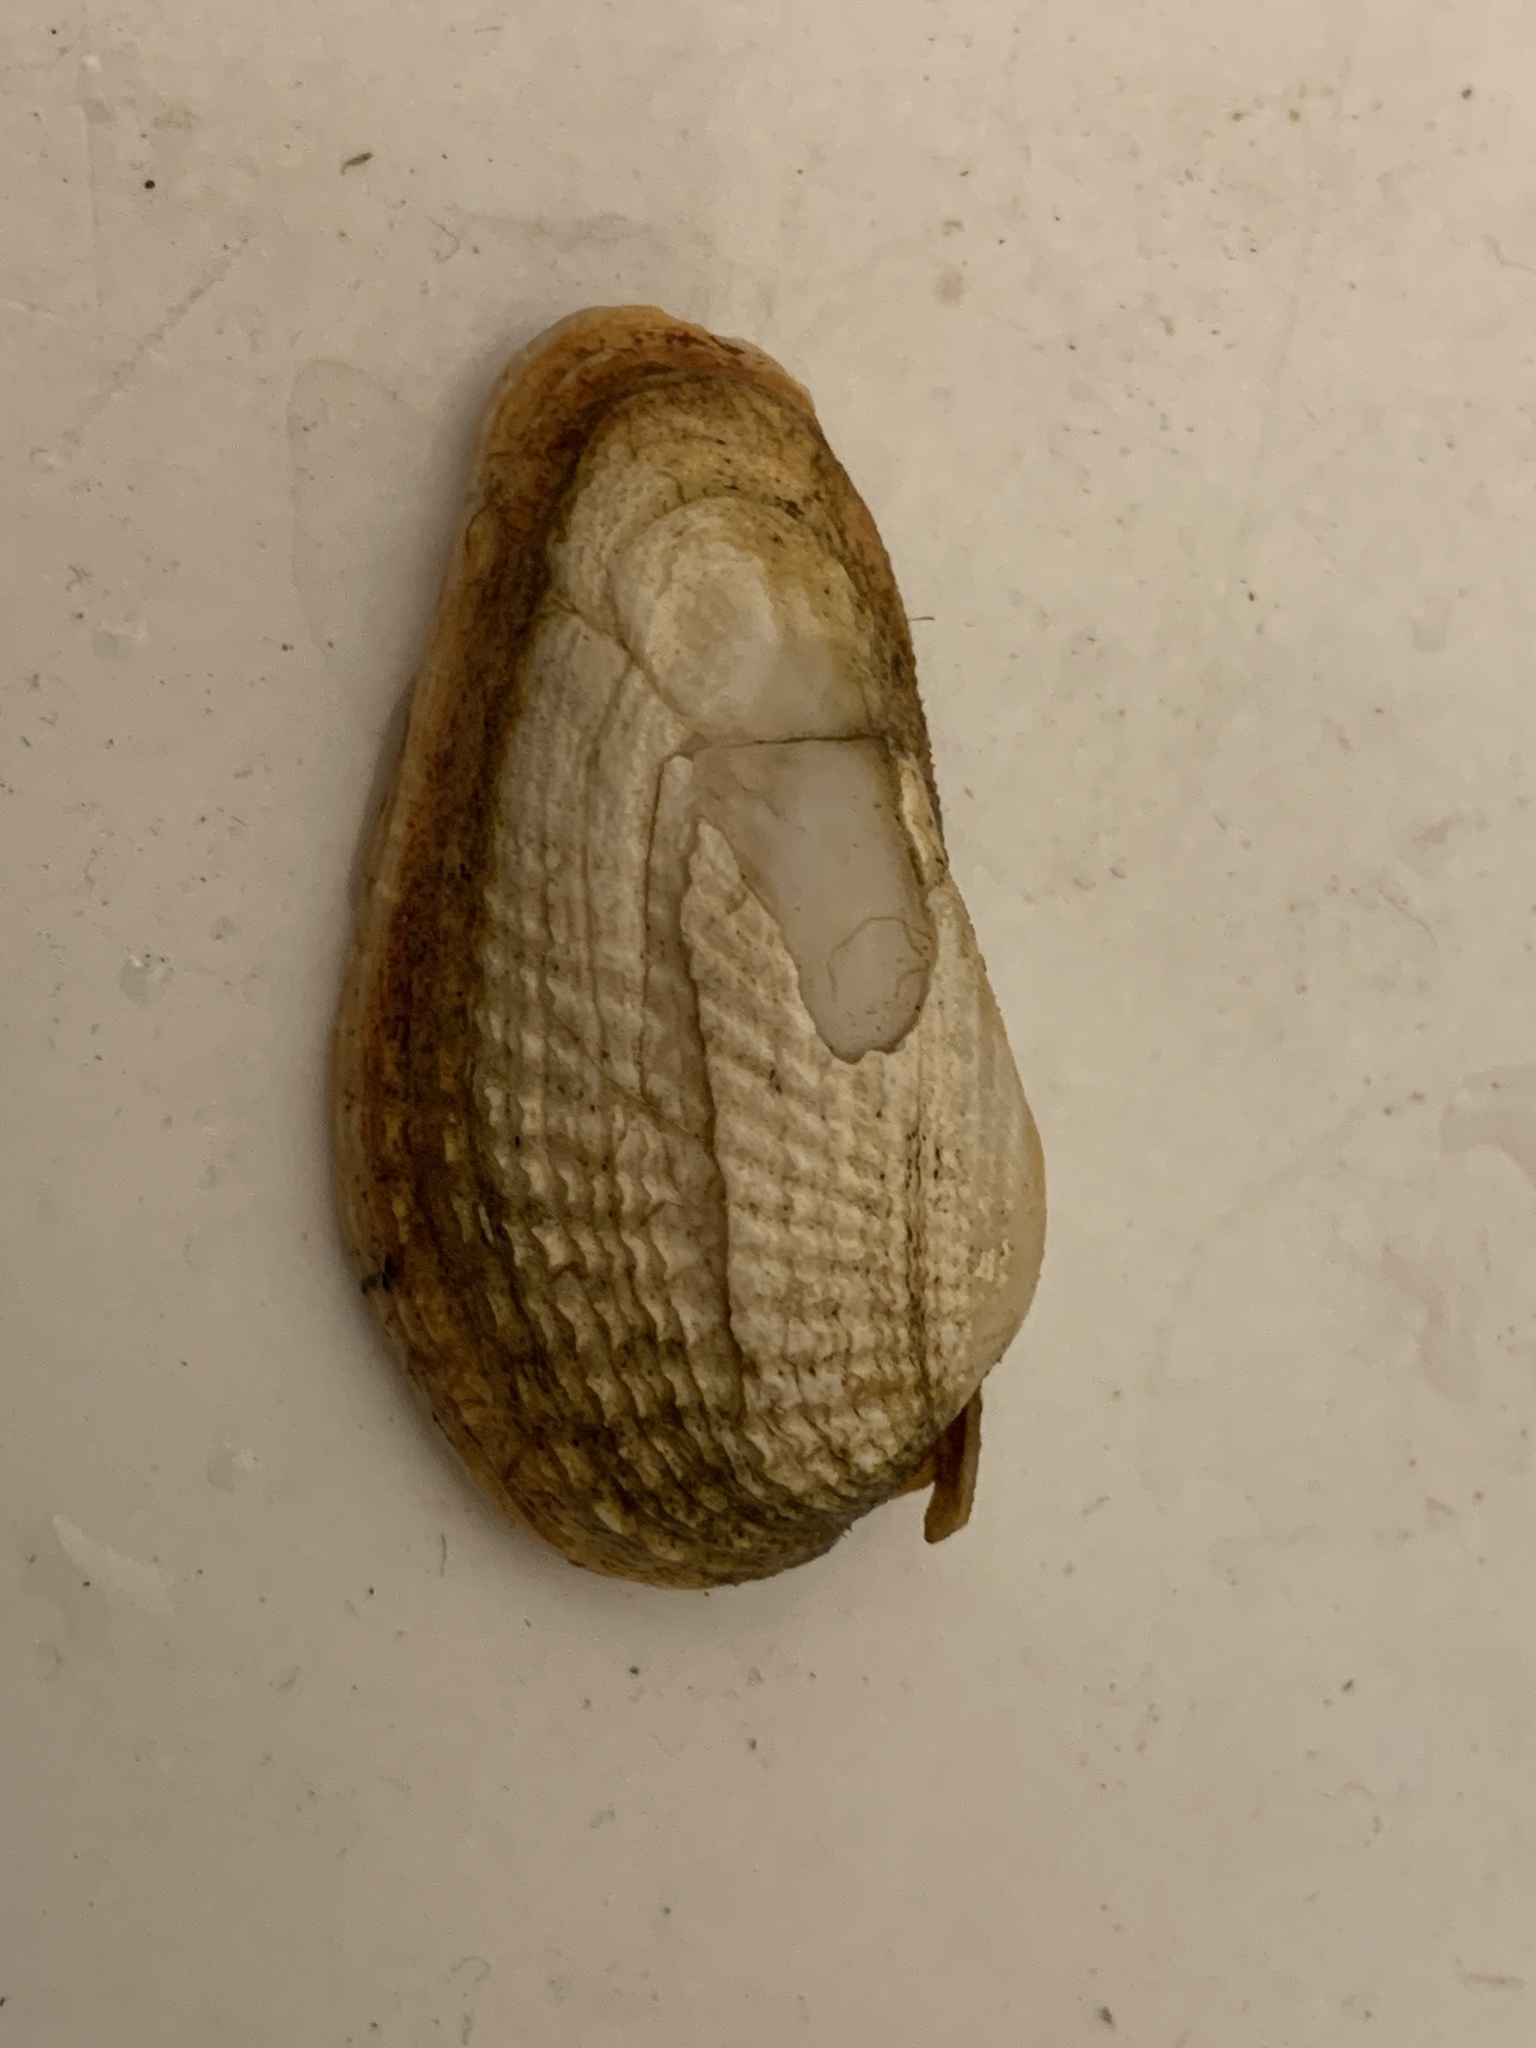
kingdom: Animalia
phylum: Mollusca
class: Bivalvia
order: Venerida
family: Veneridae
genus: Petricolaria
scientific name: Petricolaria pholadiformis
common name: American piddock
